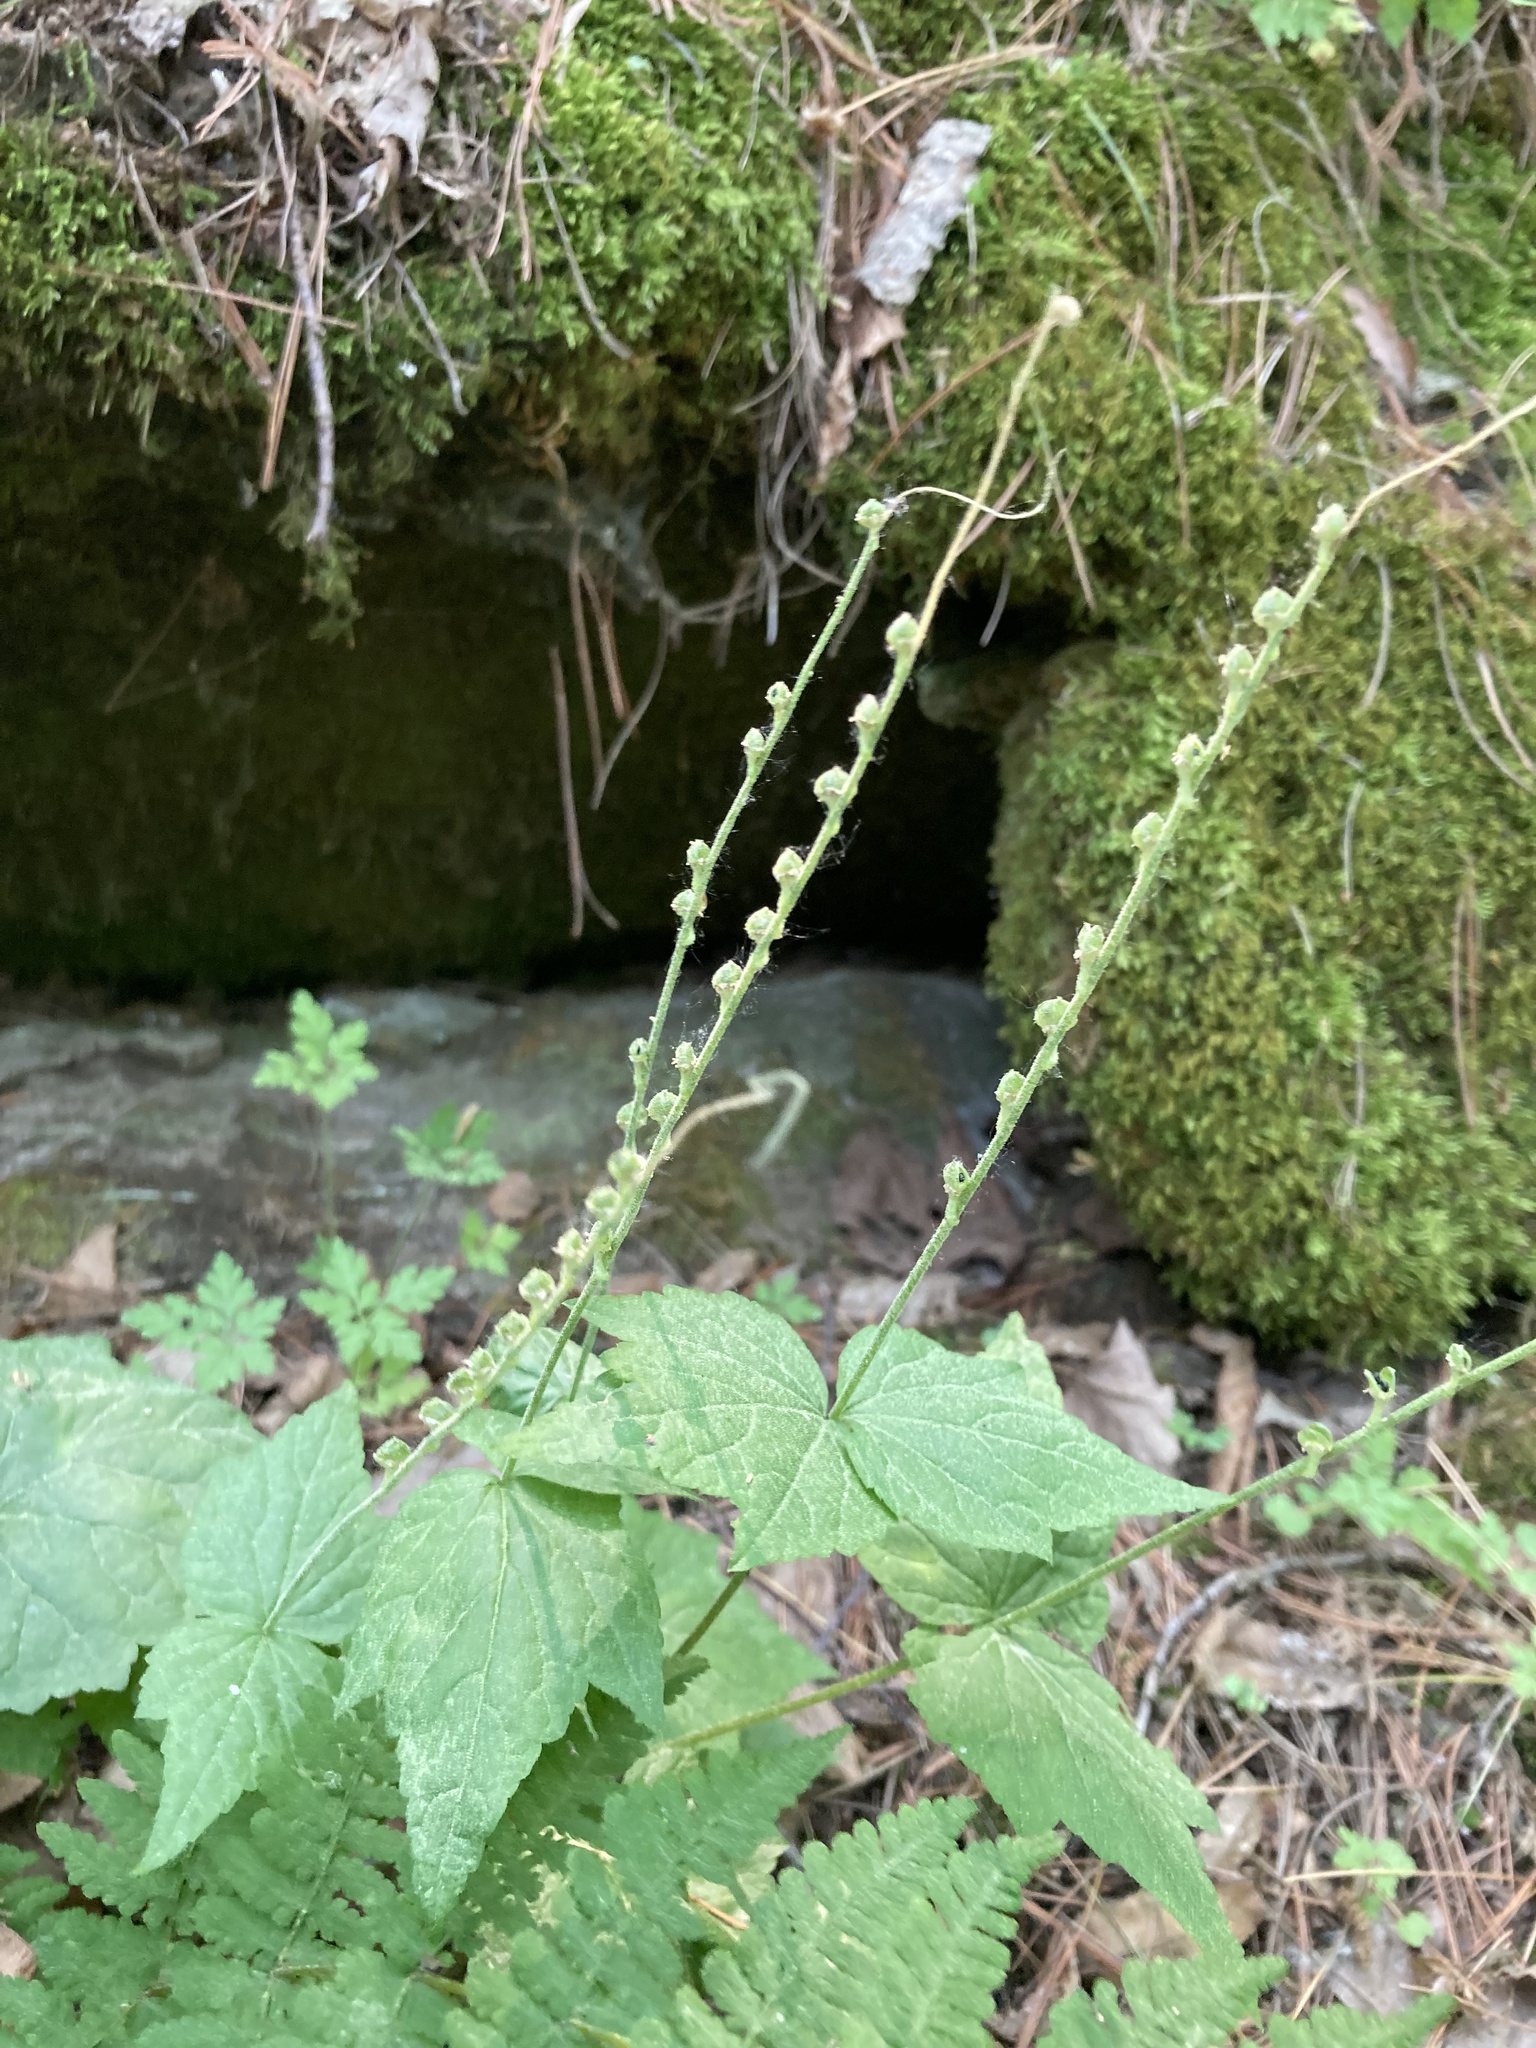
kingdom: Plantae
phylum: Tracheophyta
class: Magnoliopsida
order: Saxifragales
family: Saxifragaceae
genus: Mitella
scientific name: Mitella diphylla
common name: Coolwort
